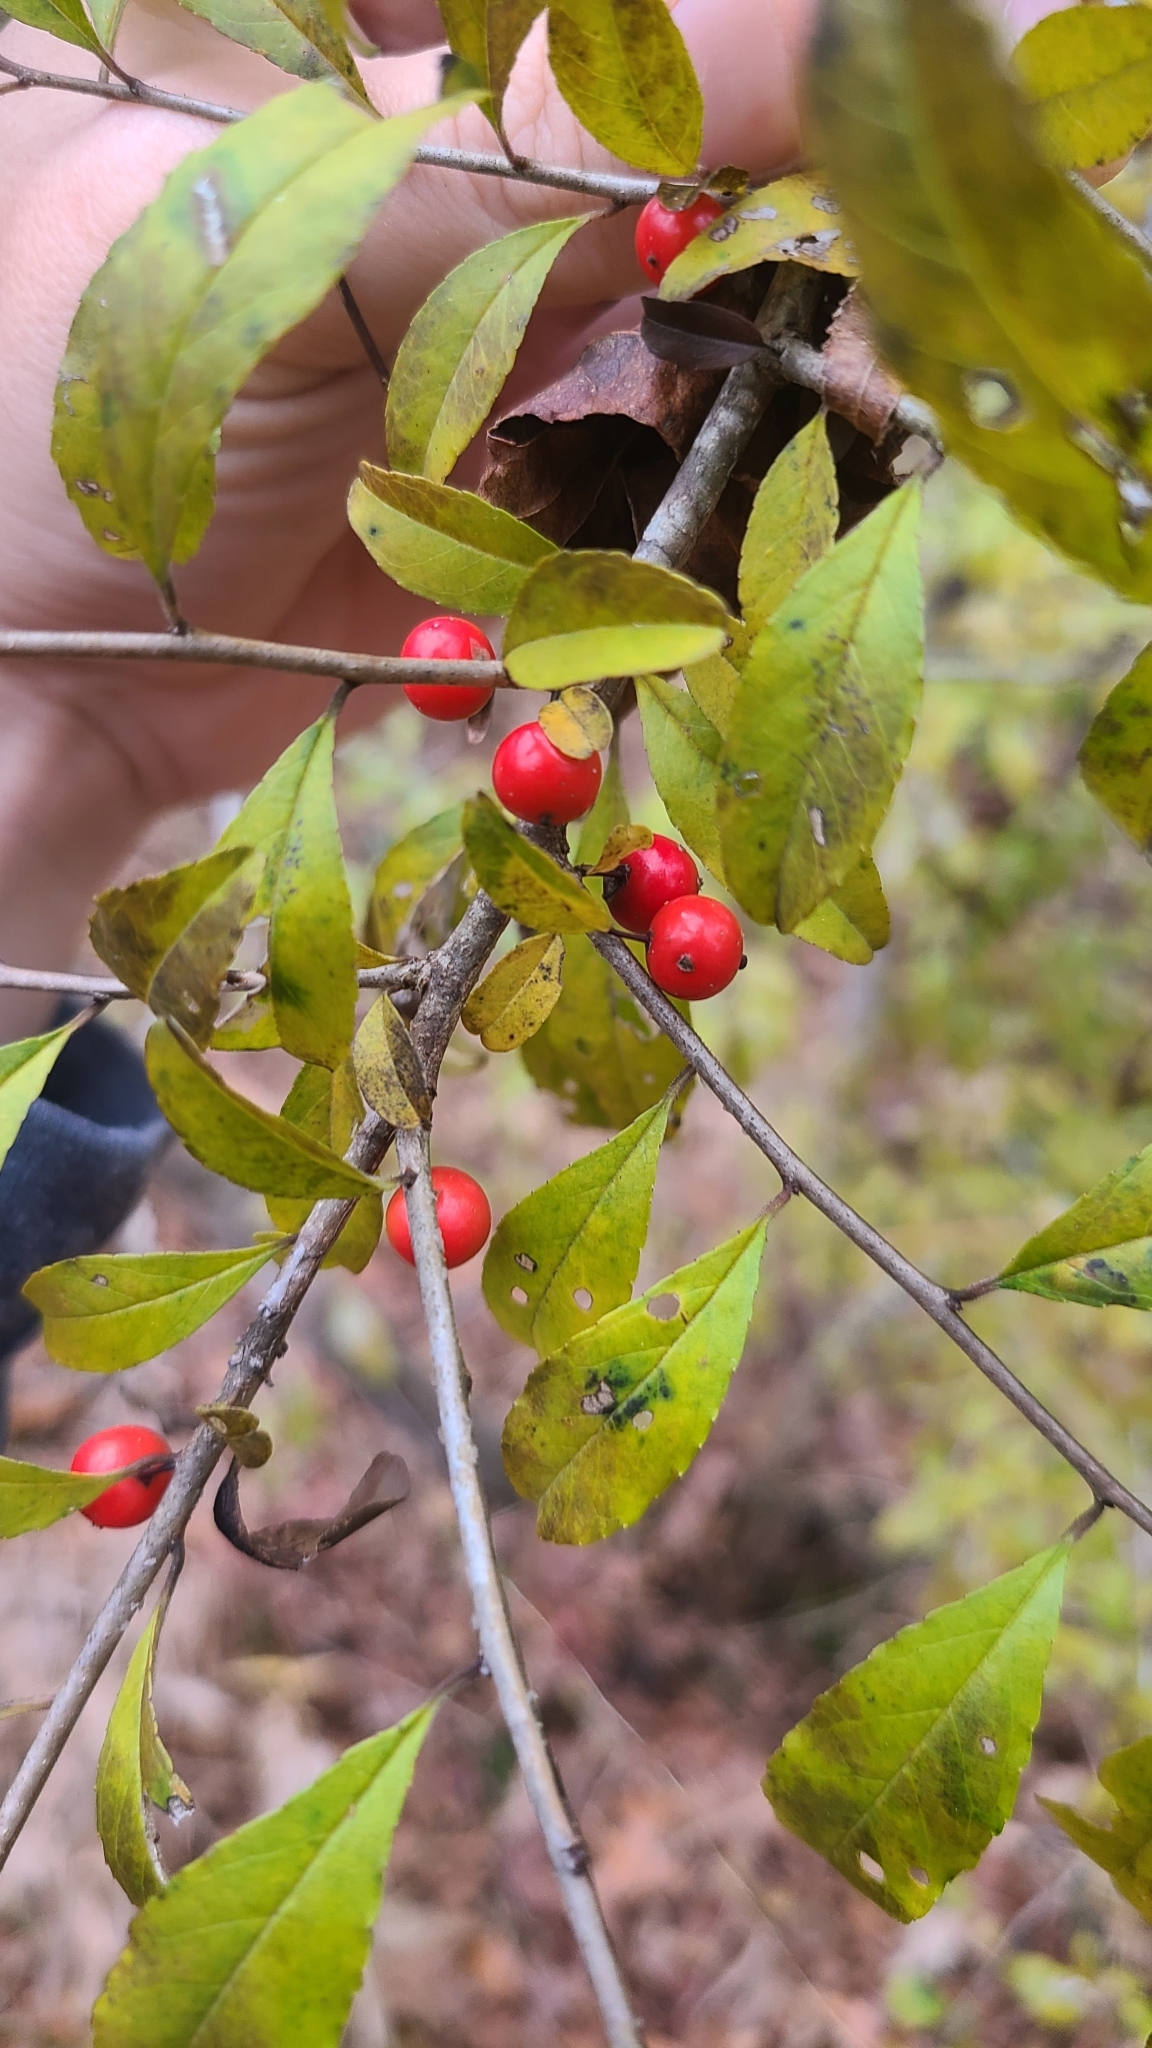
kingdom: Plantae
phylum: Tracheophyta
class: Magnoliopsida
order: Aquifoliales
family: Aquifoliaceae
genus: Ilex
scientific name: Ilex decidua
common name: Possum-haw
